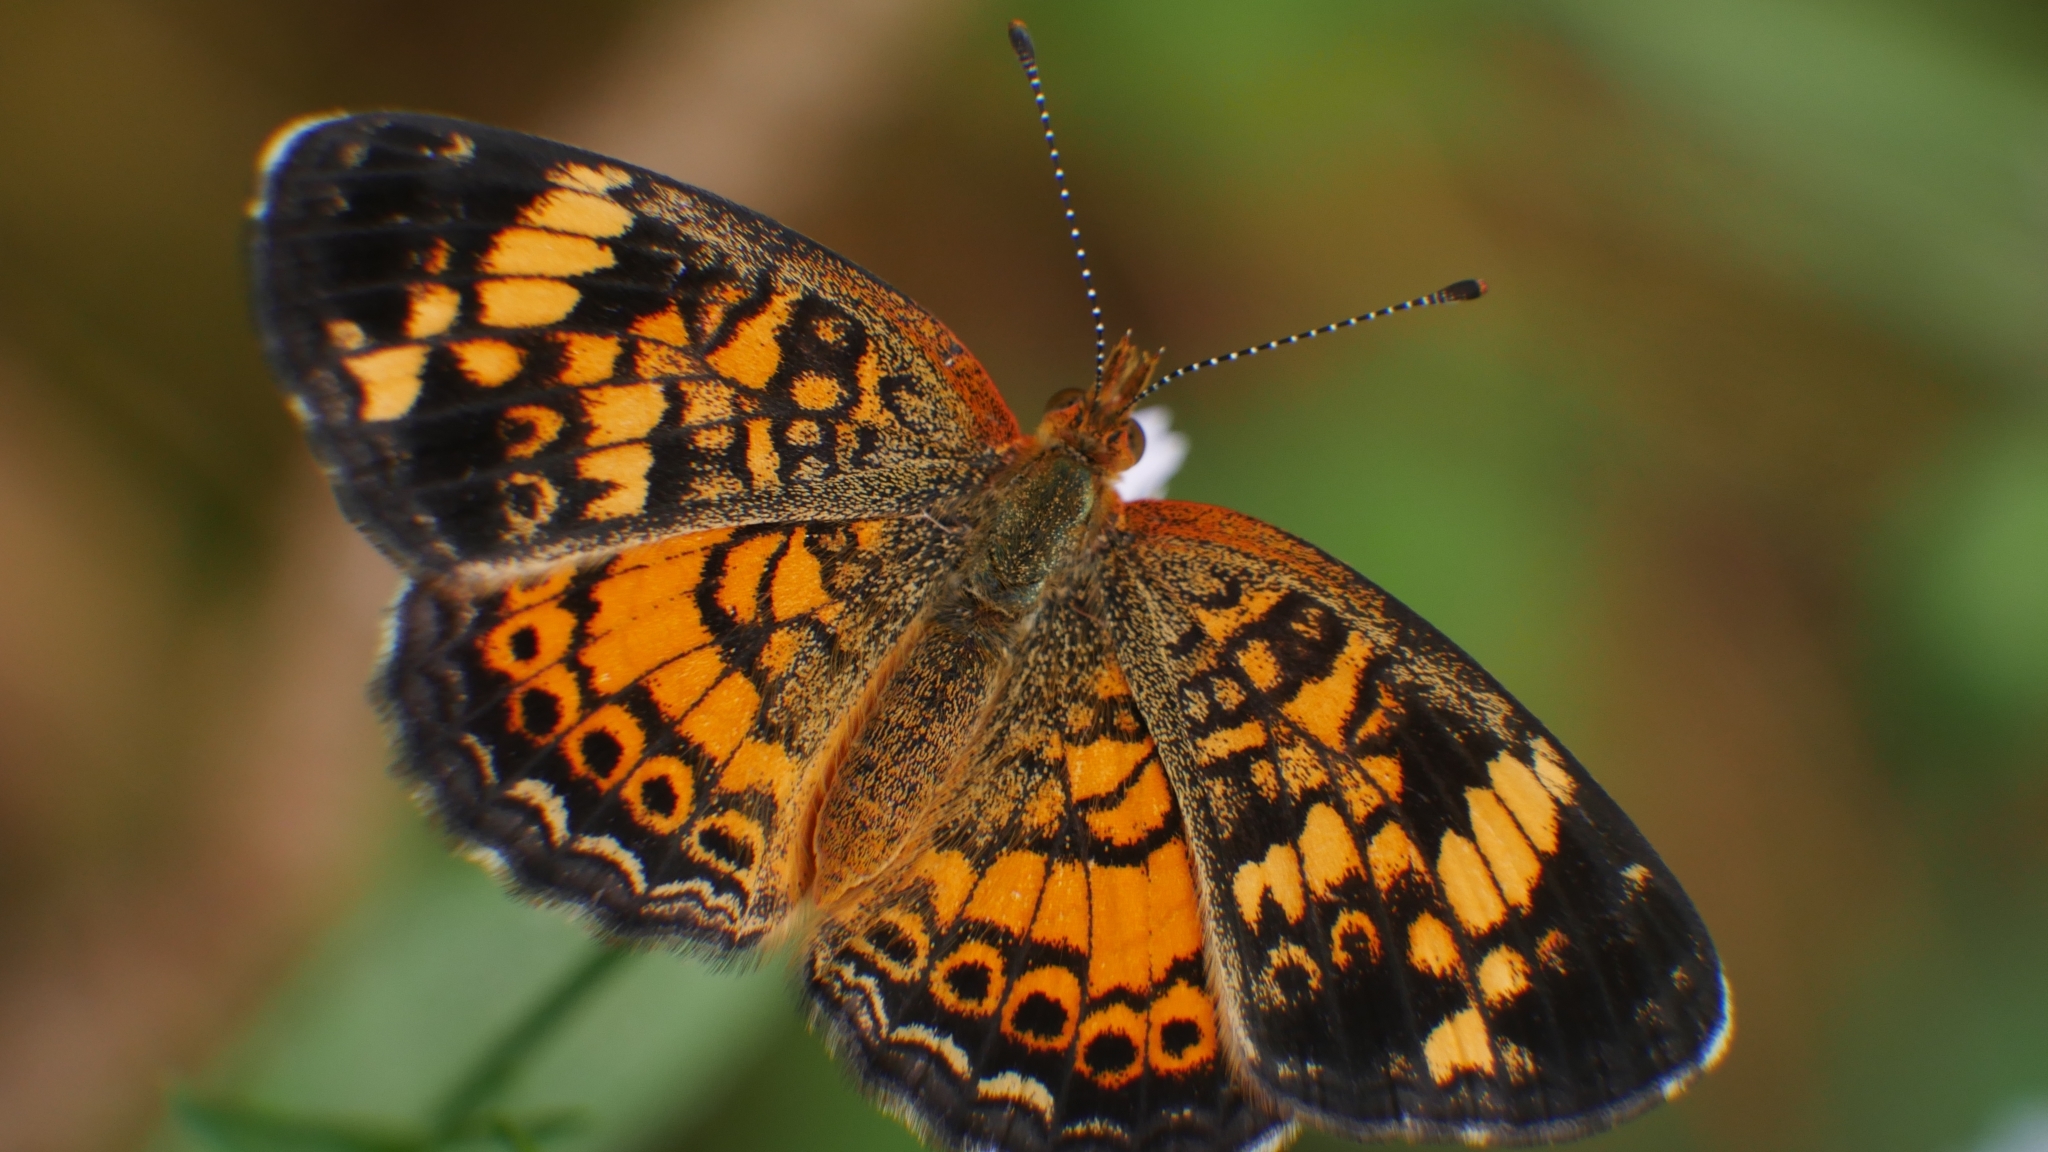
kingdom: Animalia
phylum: Arthropoda
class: Insecta
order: Lepidoptera
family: Nymphalidae
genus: Phyciodes
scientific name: Phyciodes tharos
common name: Pearl crescent
